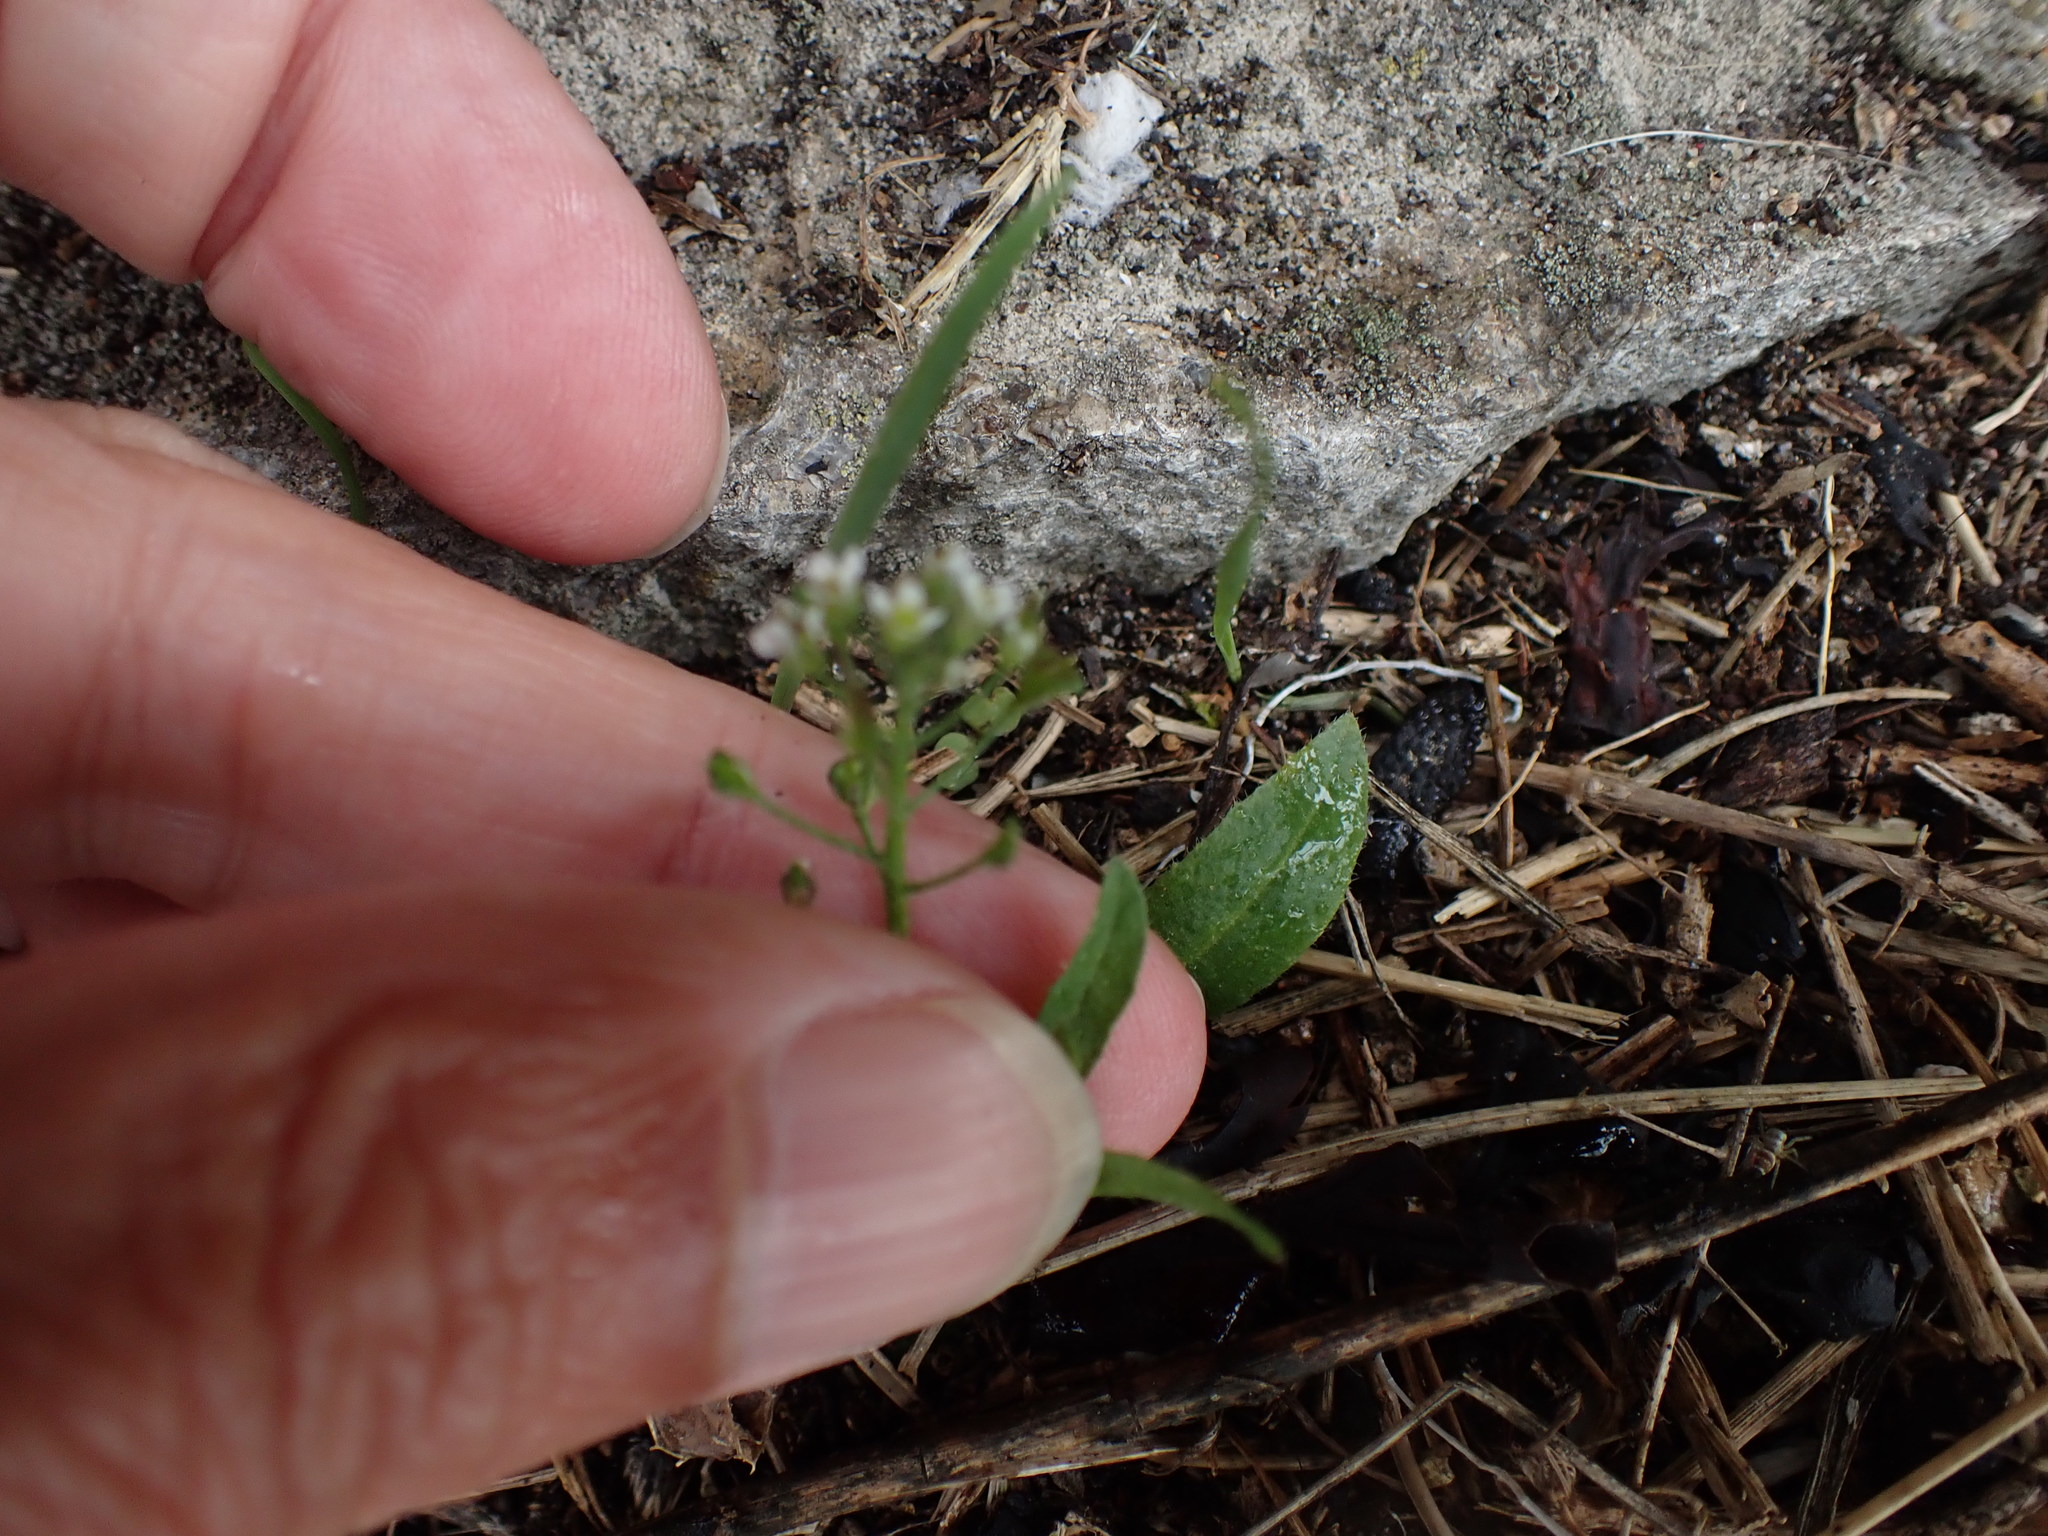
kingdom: Plantae
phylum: Tracheophyta
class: Magnoliopsida
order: Brassicales
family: Brassicaceae
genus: Capsella
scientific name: Capsella bursa-pastoris
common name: Shepherd's purse
